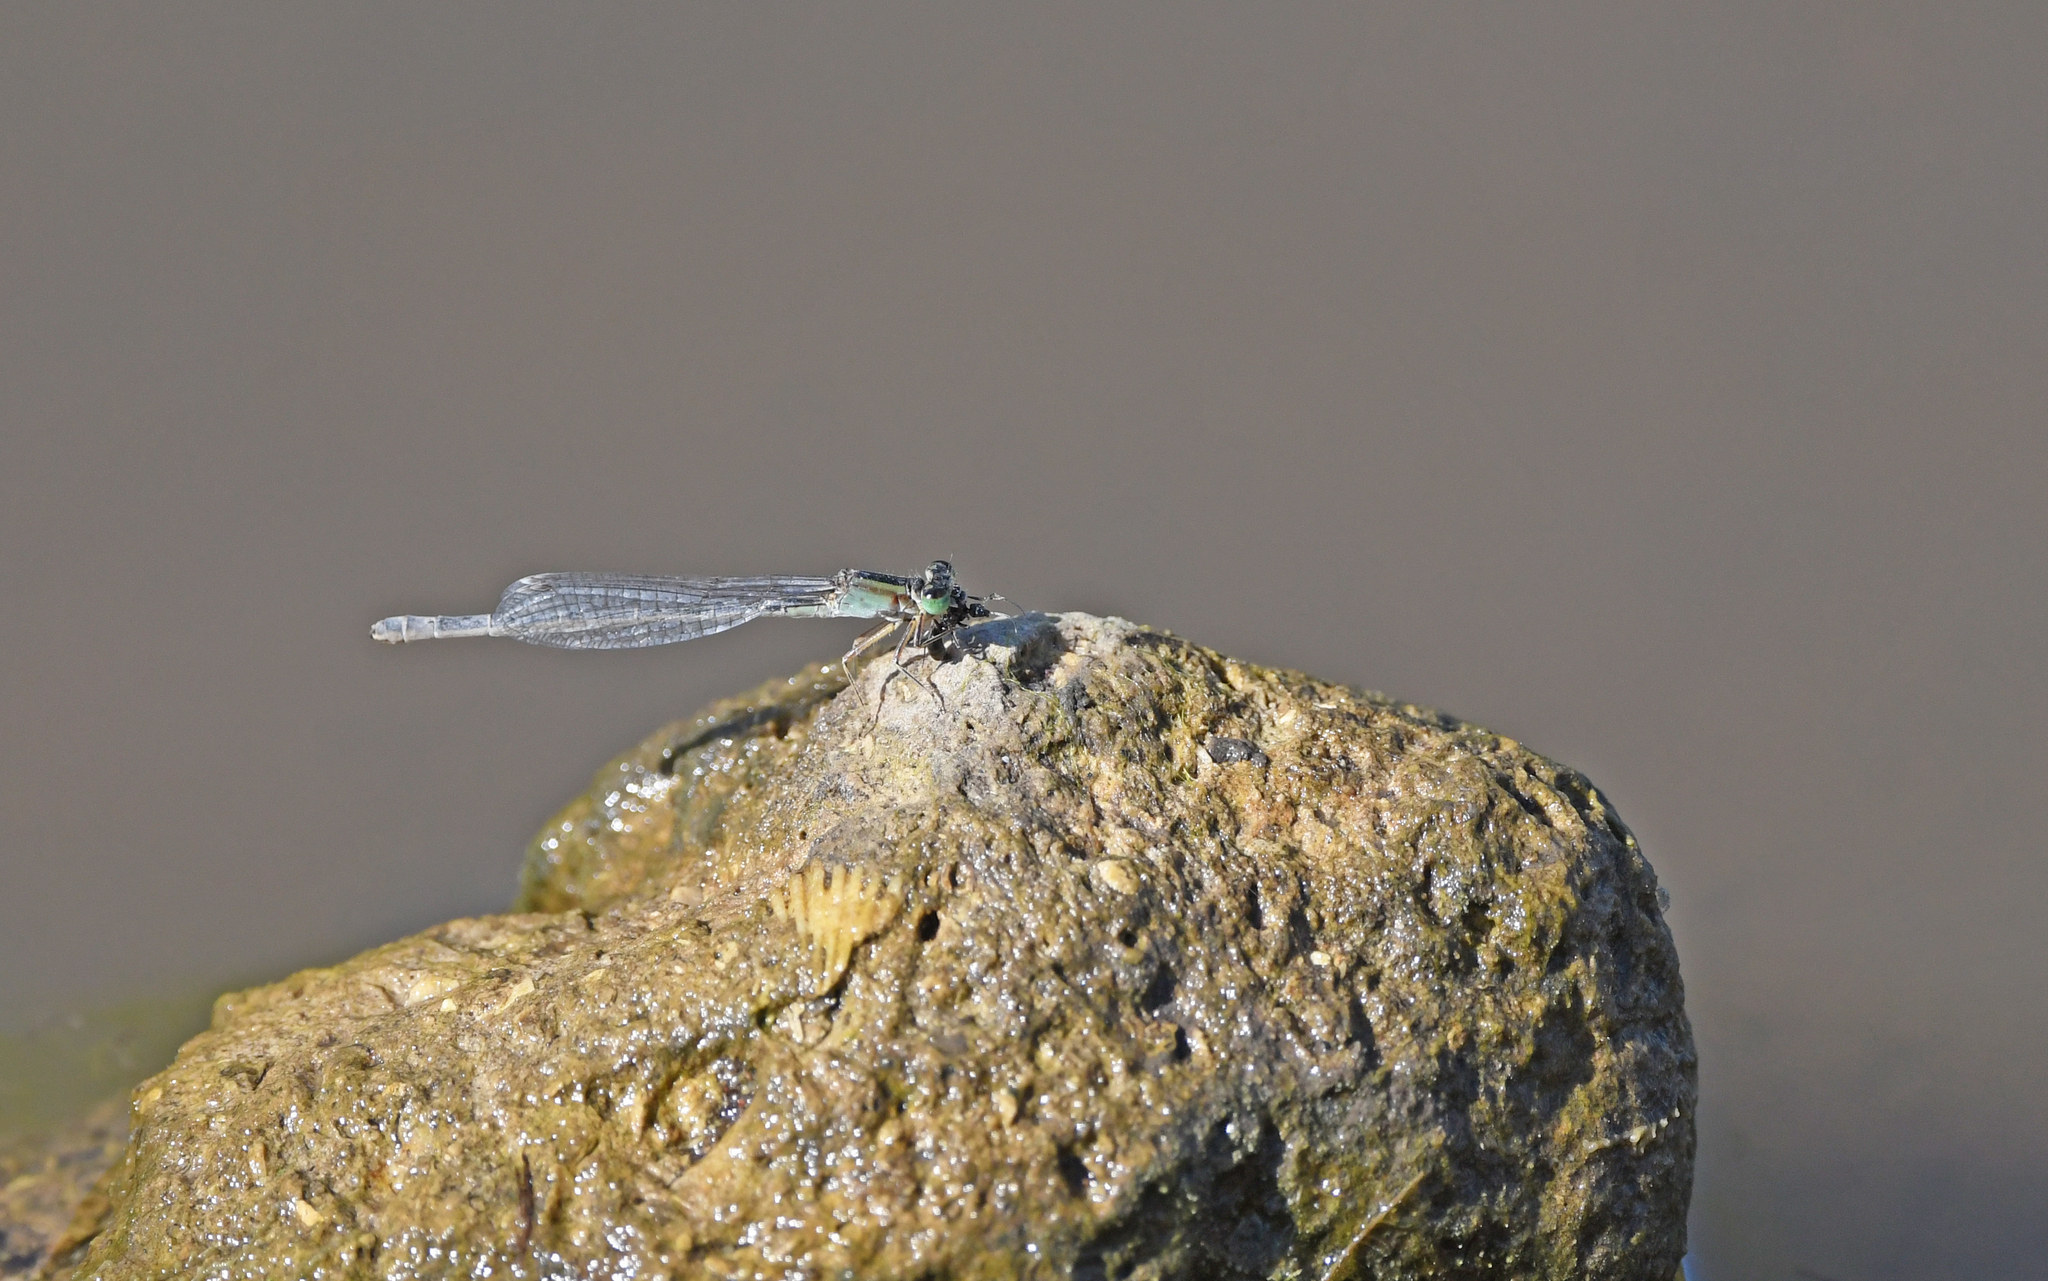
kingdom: Animalia
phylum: Arthropoda
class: Insecta
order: Odonata
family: Coenagrionidae
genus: Ischnura
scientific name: Ischnura genei
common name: Island bluetail
